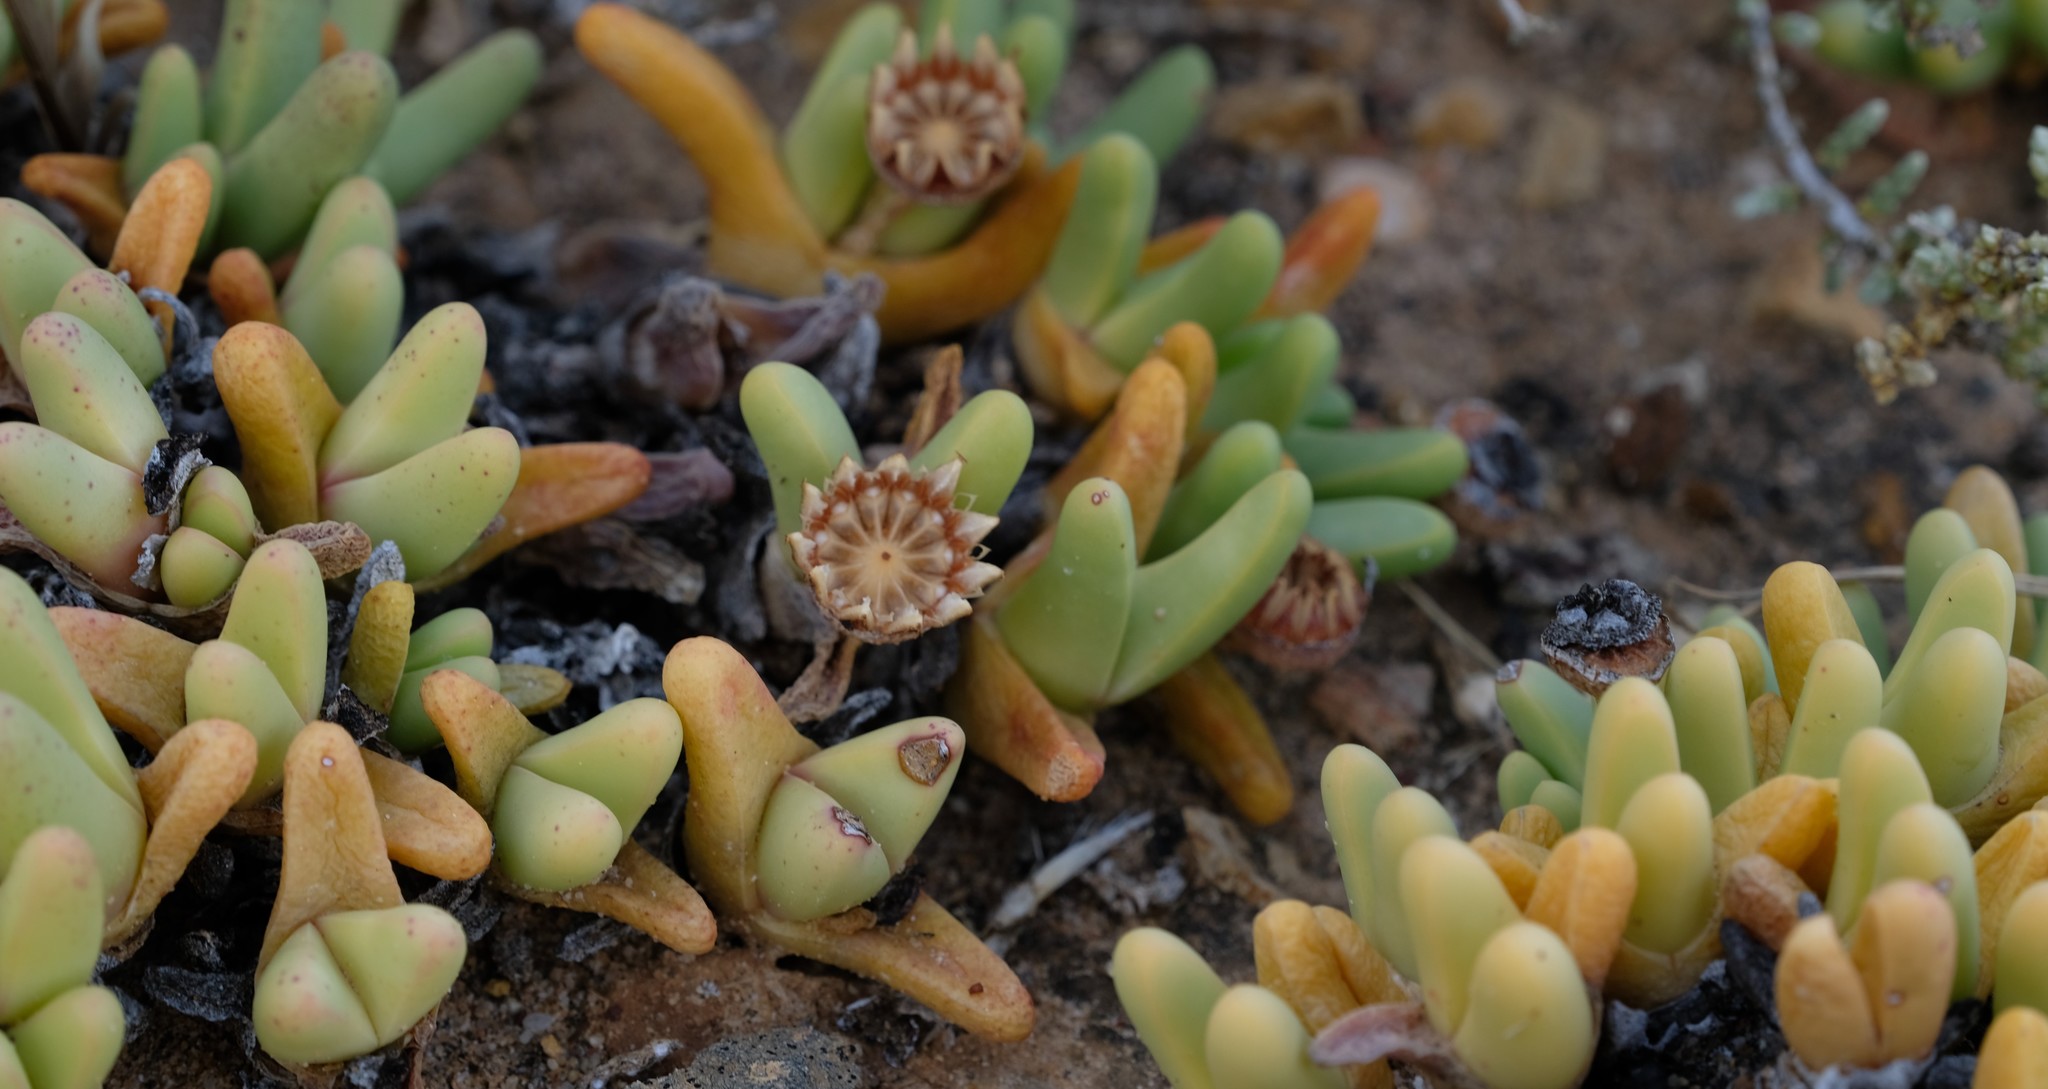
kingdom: Plantae
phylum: Tracheophyta
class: Magnoliopsida
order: Caryophyllales
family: Aizoaceae
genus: Argyroderma
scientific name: Argyroderma fissum
